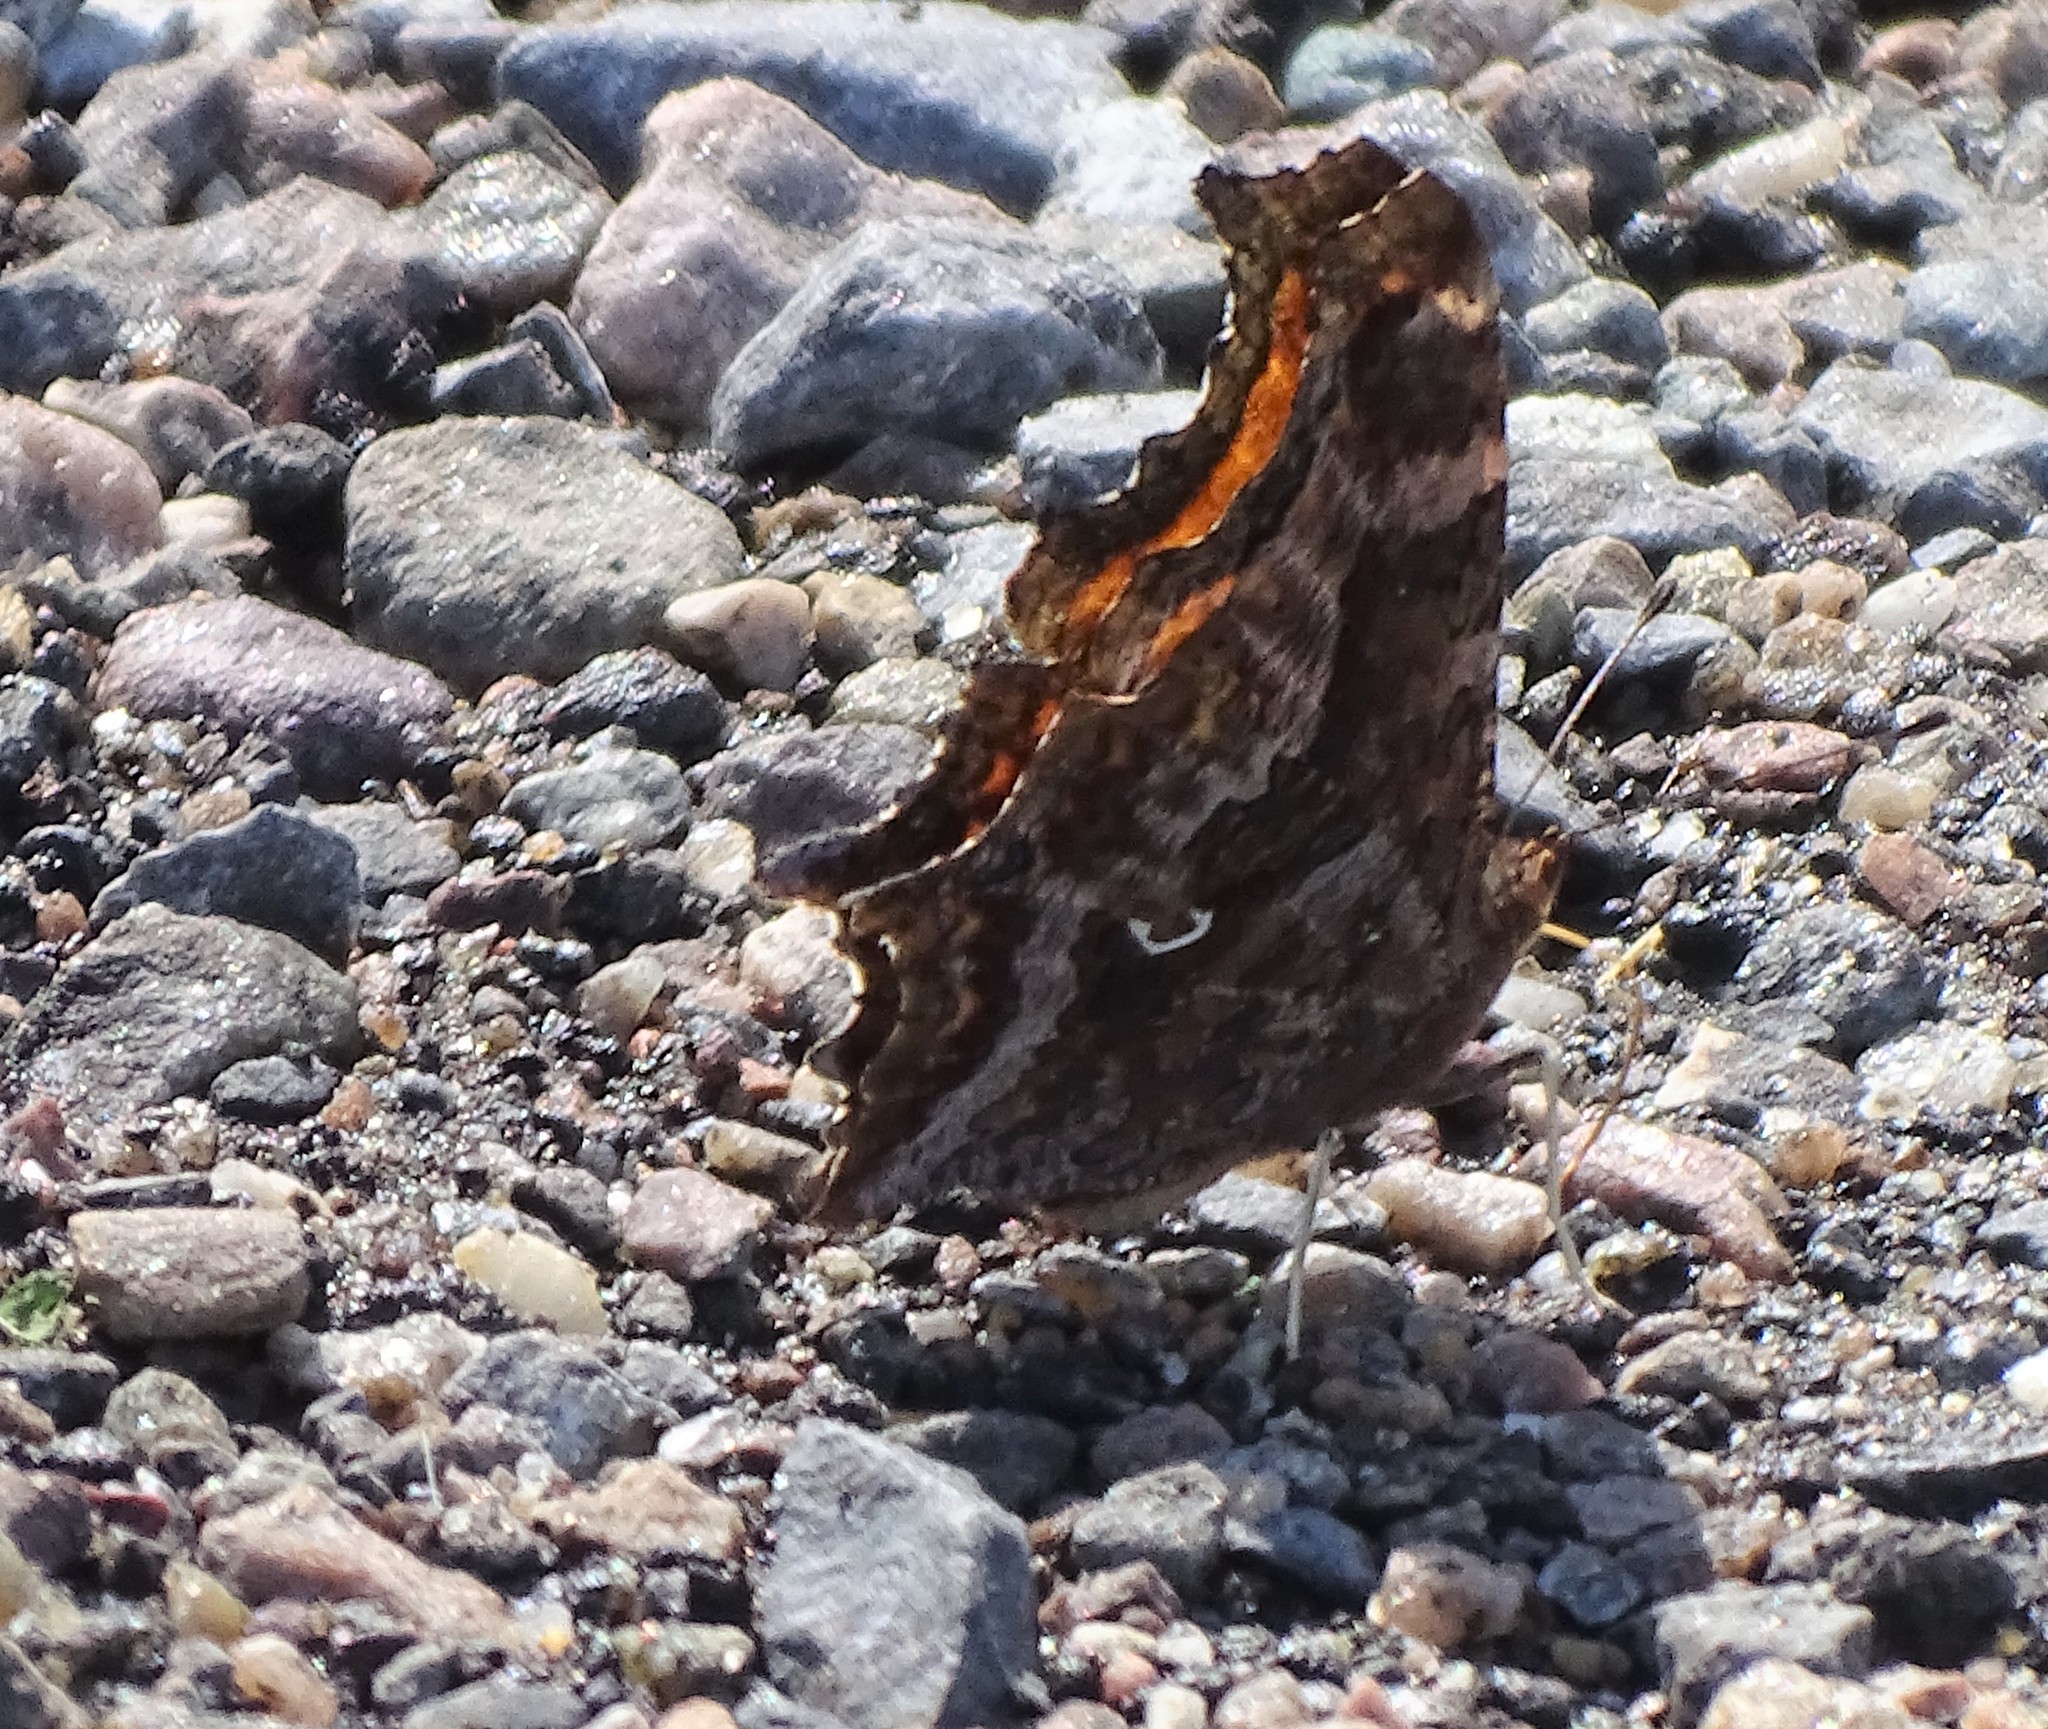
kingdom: Animalia
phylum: Arthropoda
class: Insecta
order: Lepidoptera
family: Nymphalidae
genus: Polygonia
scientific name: Polygonia comma
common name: Eastern comma
